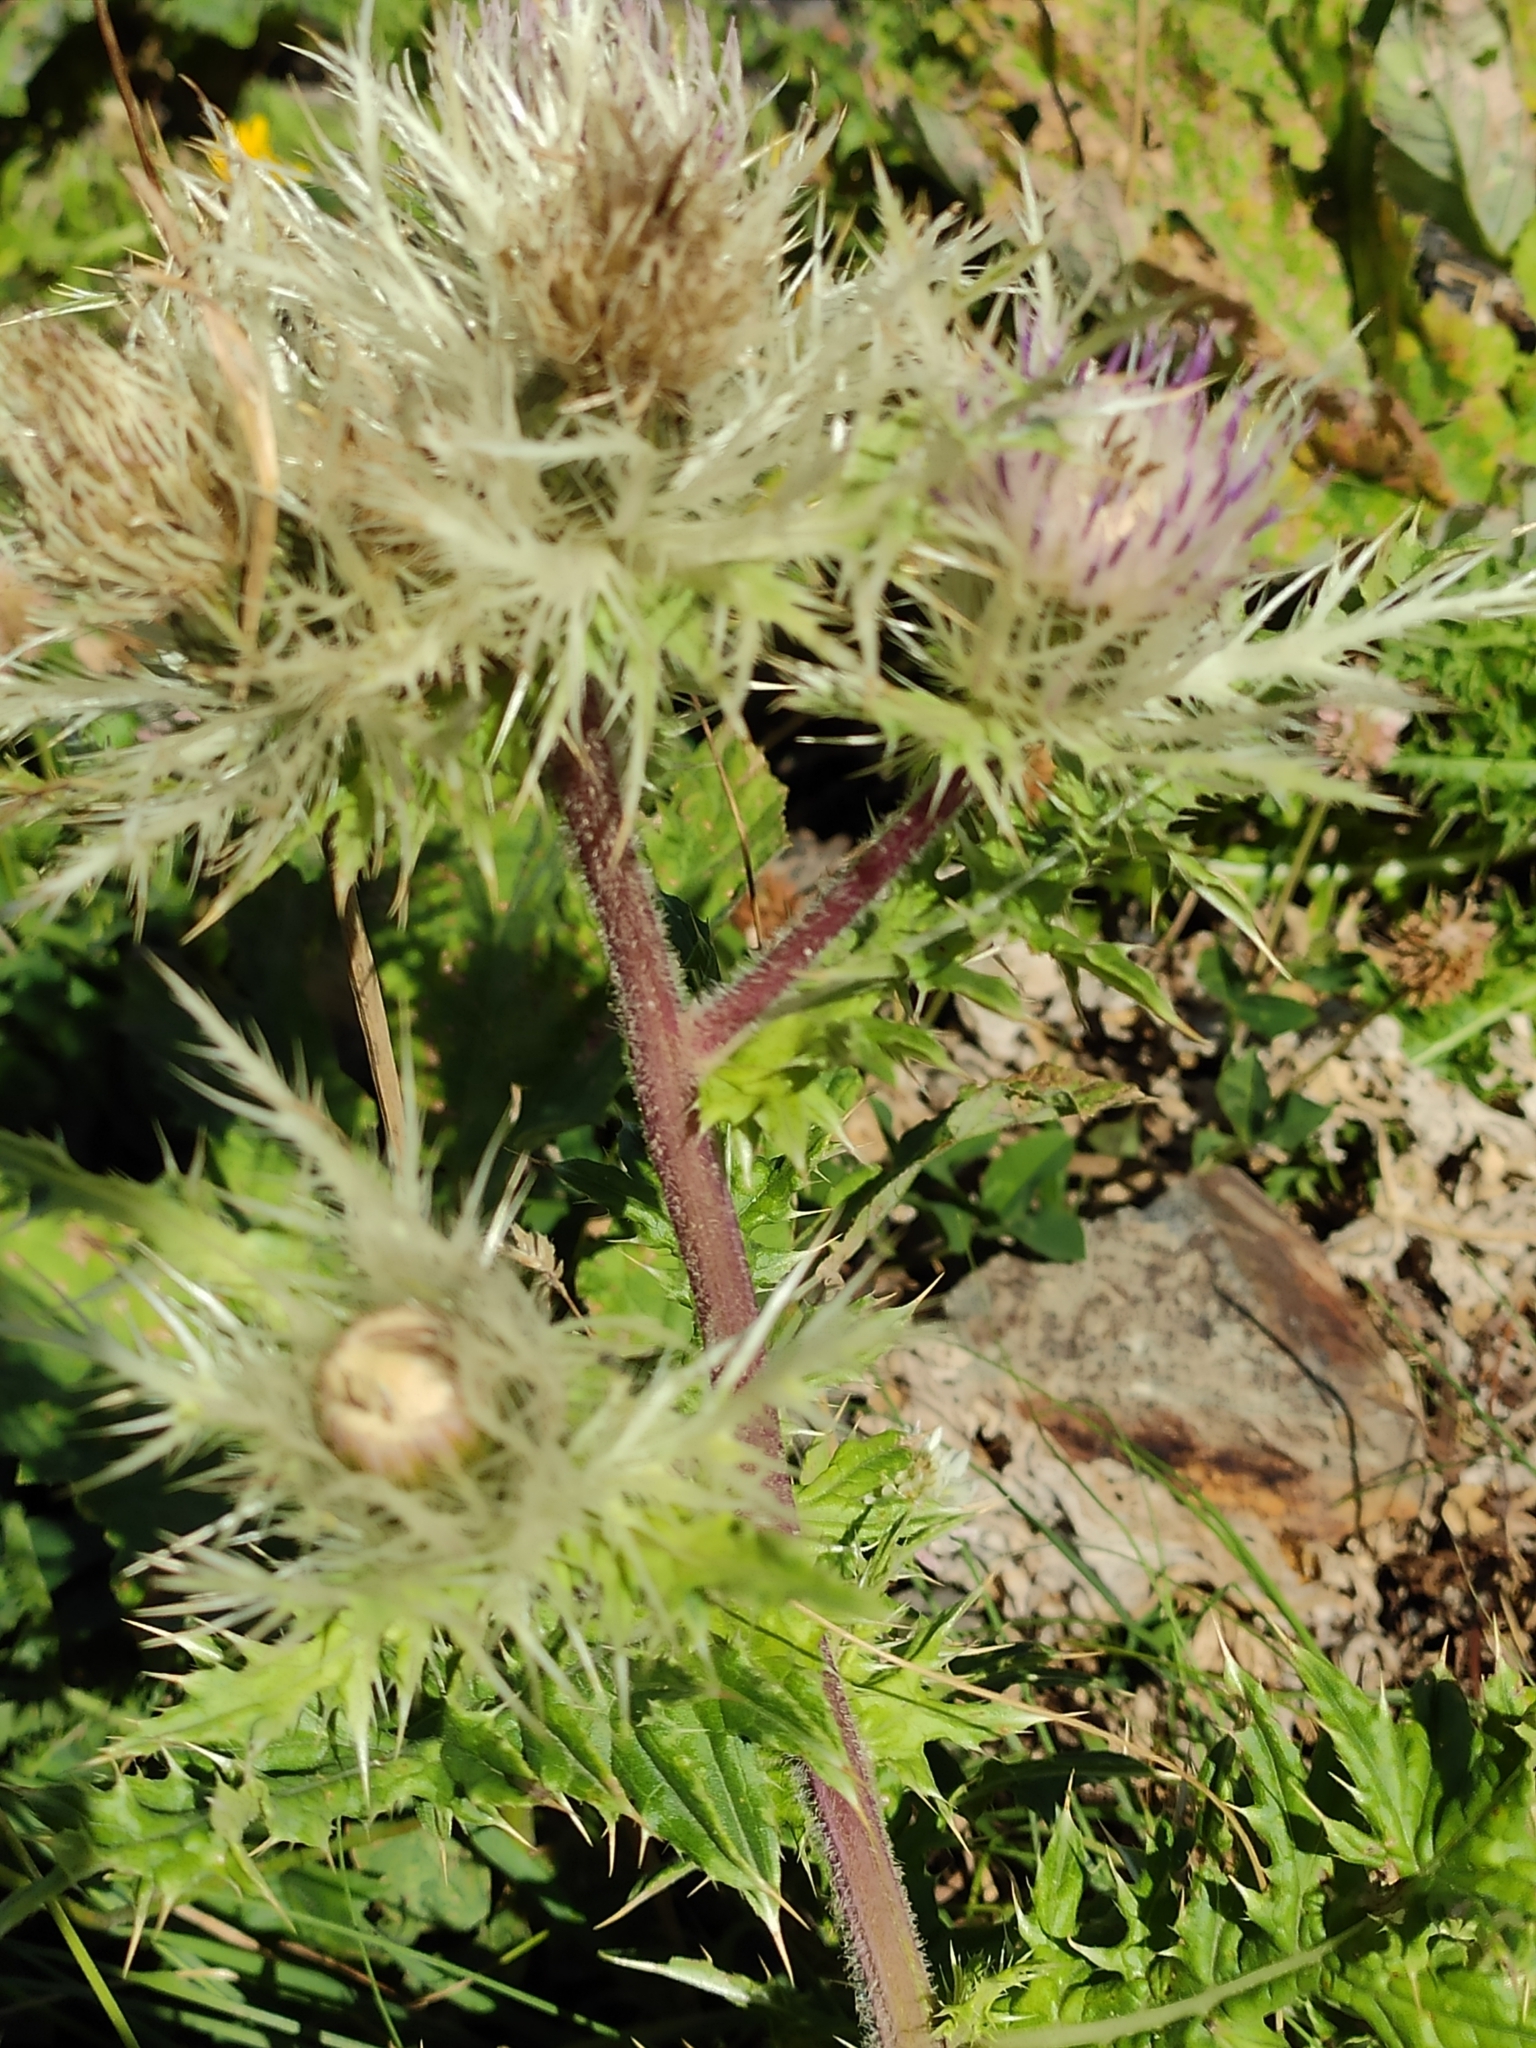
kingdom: Plantae
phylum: Tracheophyta
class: Magnoliopsida
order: Asterales
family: Asteraceae
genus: Cirsium
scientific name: Cirsium obvallatum
